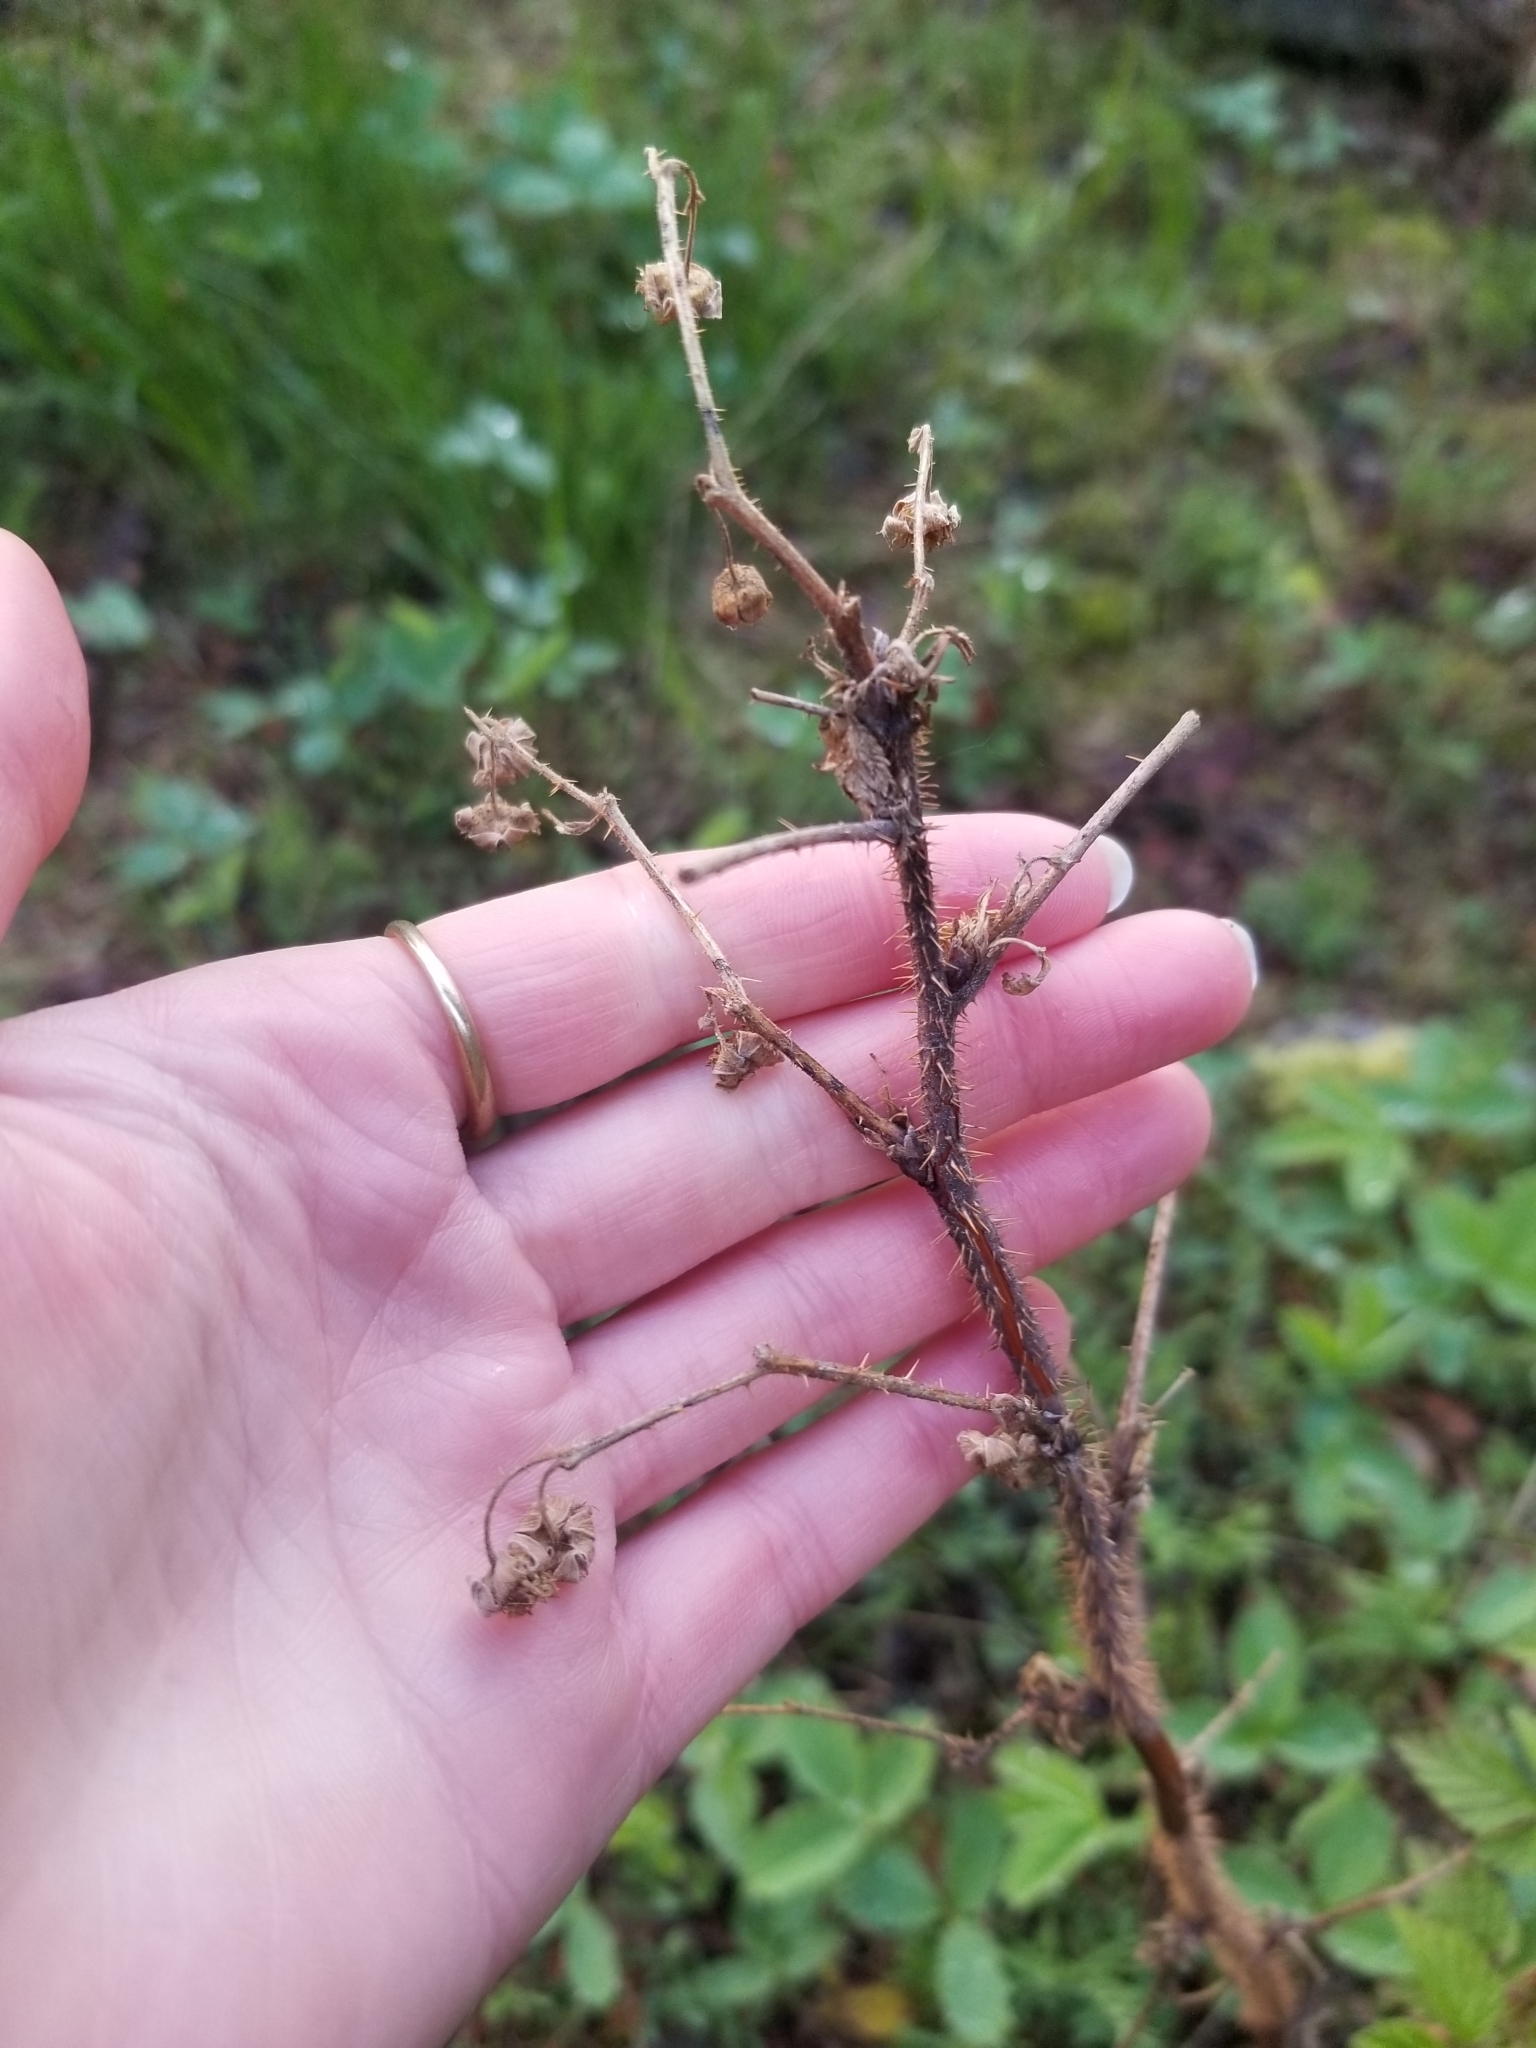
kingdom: Plantae
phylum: Tracheophyta
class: Magnoliopsida
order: Rosales
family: Rosaceae
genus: Rubus
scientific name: Rubus idaeus
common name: Raspberry
